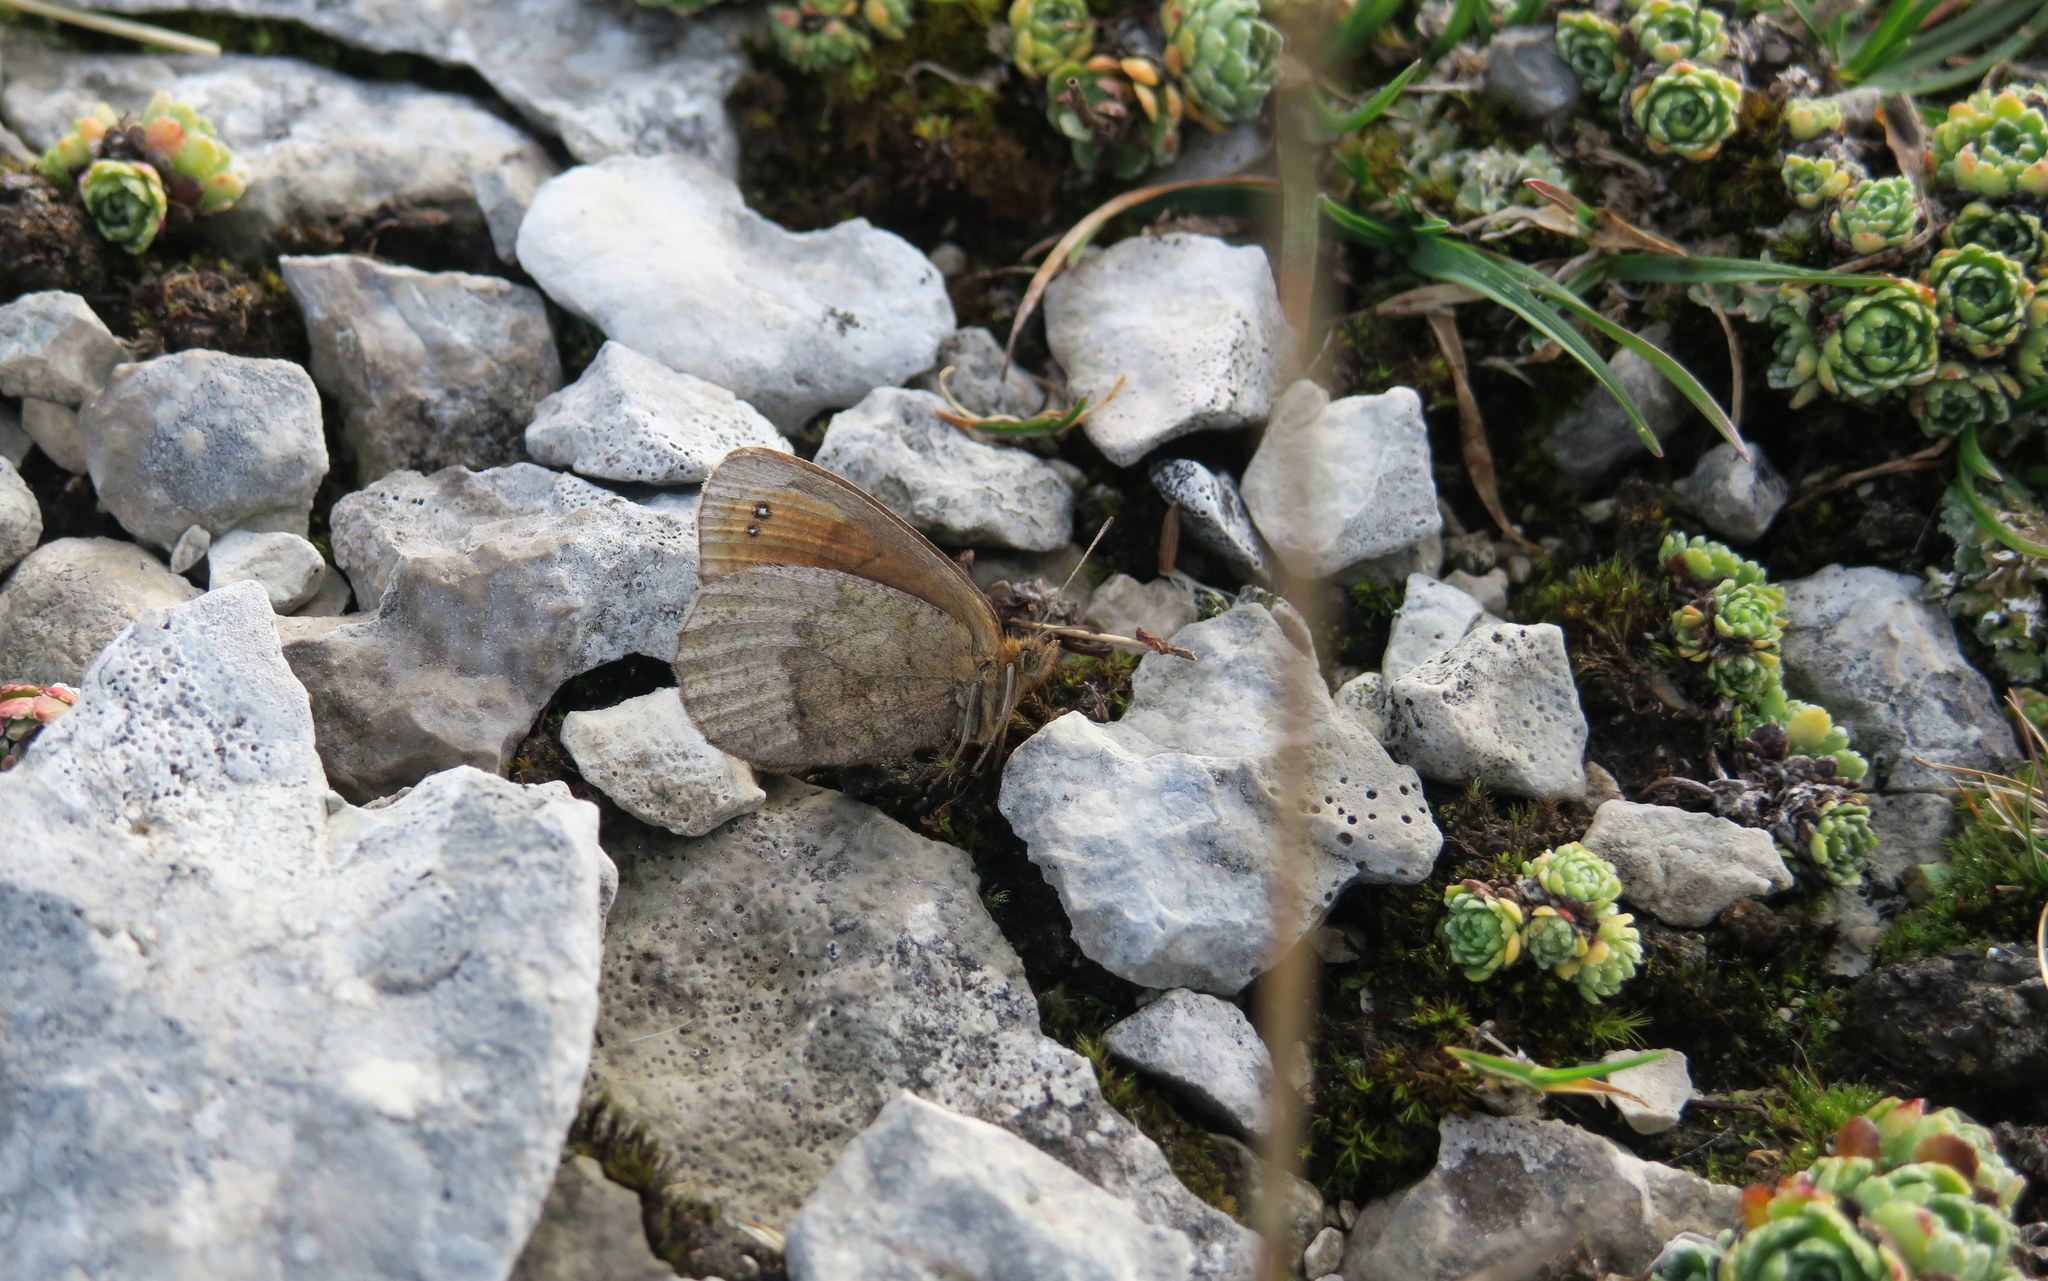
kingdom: Animalia
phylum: Arthropoda
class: Insecta
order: Lepidoptera
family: Nymphalidae
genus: Erebia
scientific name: Erebia pronoe
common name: Water ringlet
